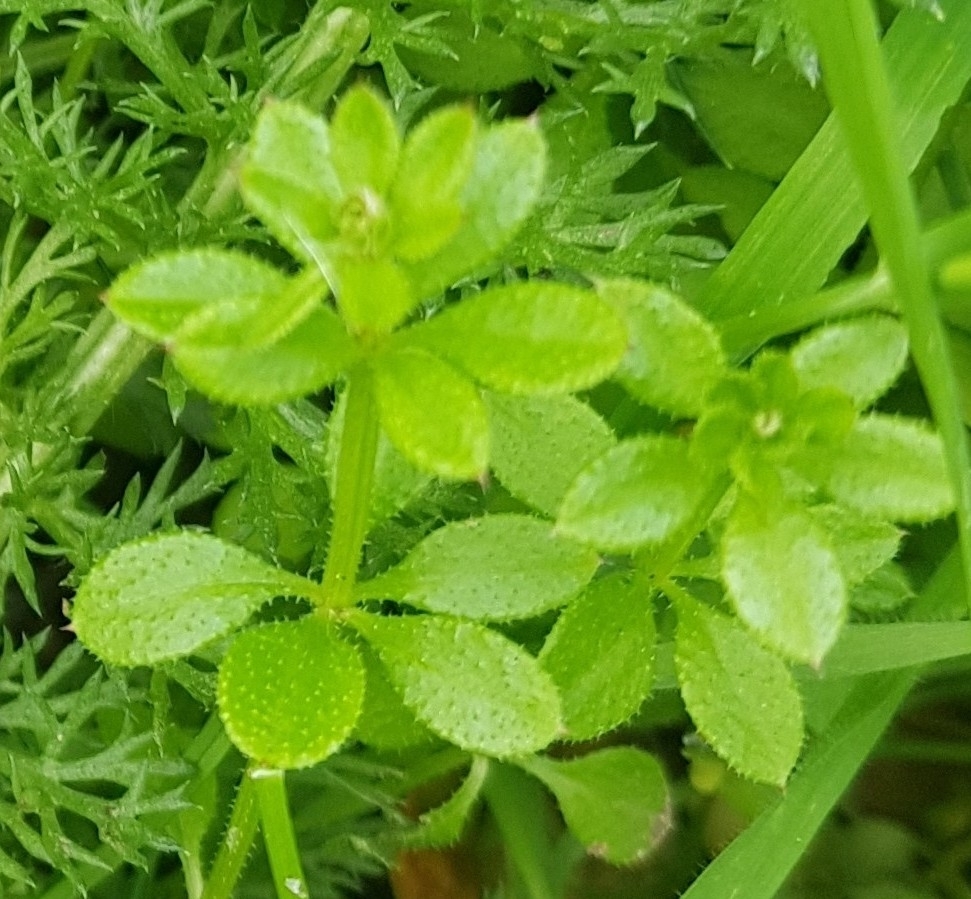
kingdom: Plantae
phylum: Tracheophyta
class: Magnoliopsida
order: Gentianales
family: Rubiaceae
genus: Galium
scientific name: Galium aparine
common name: Cleavers
